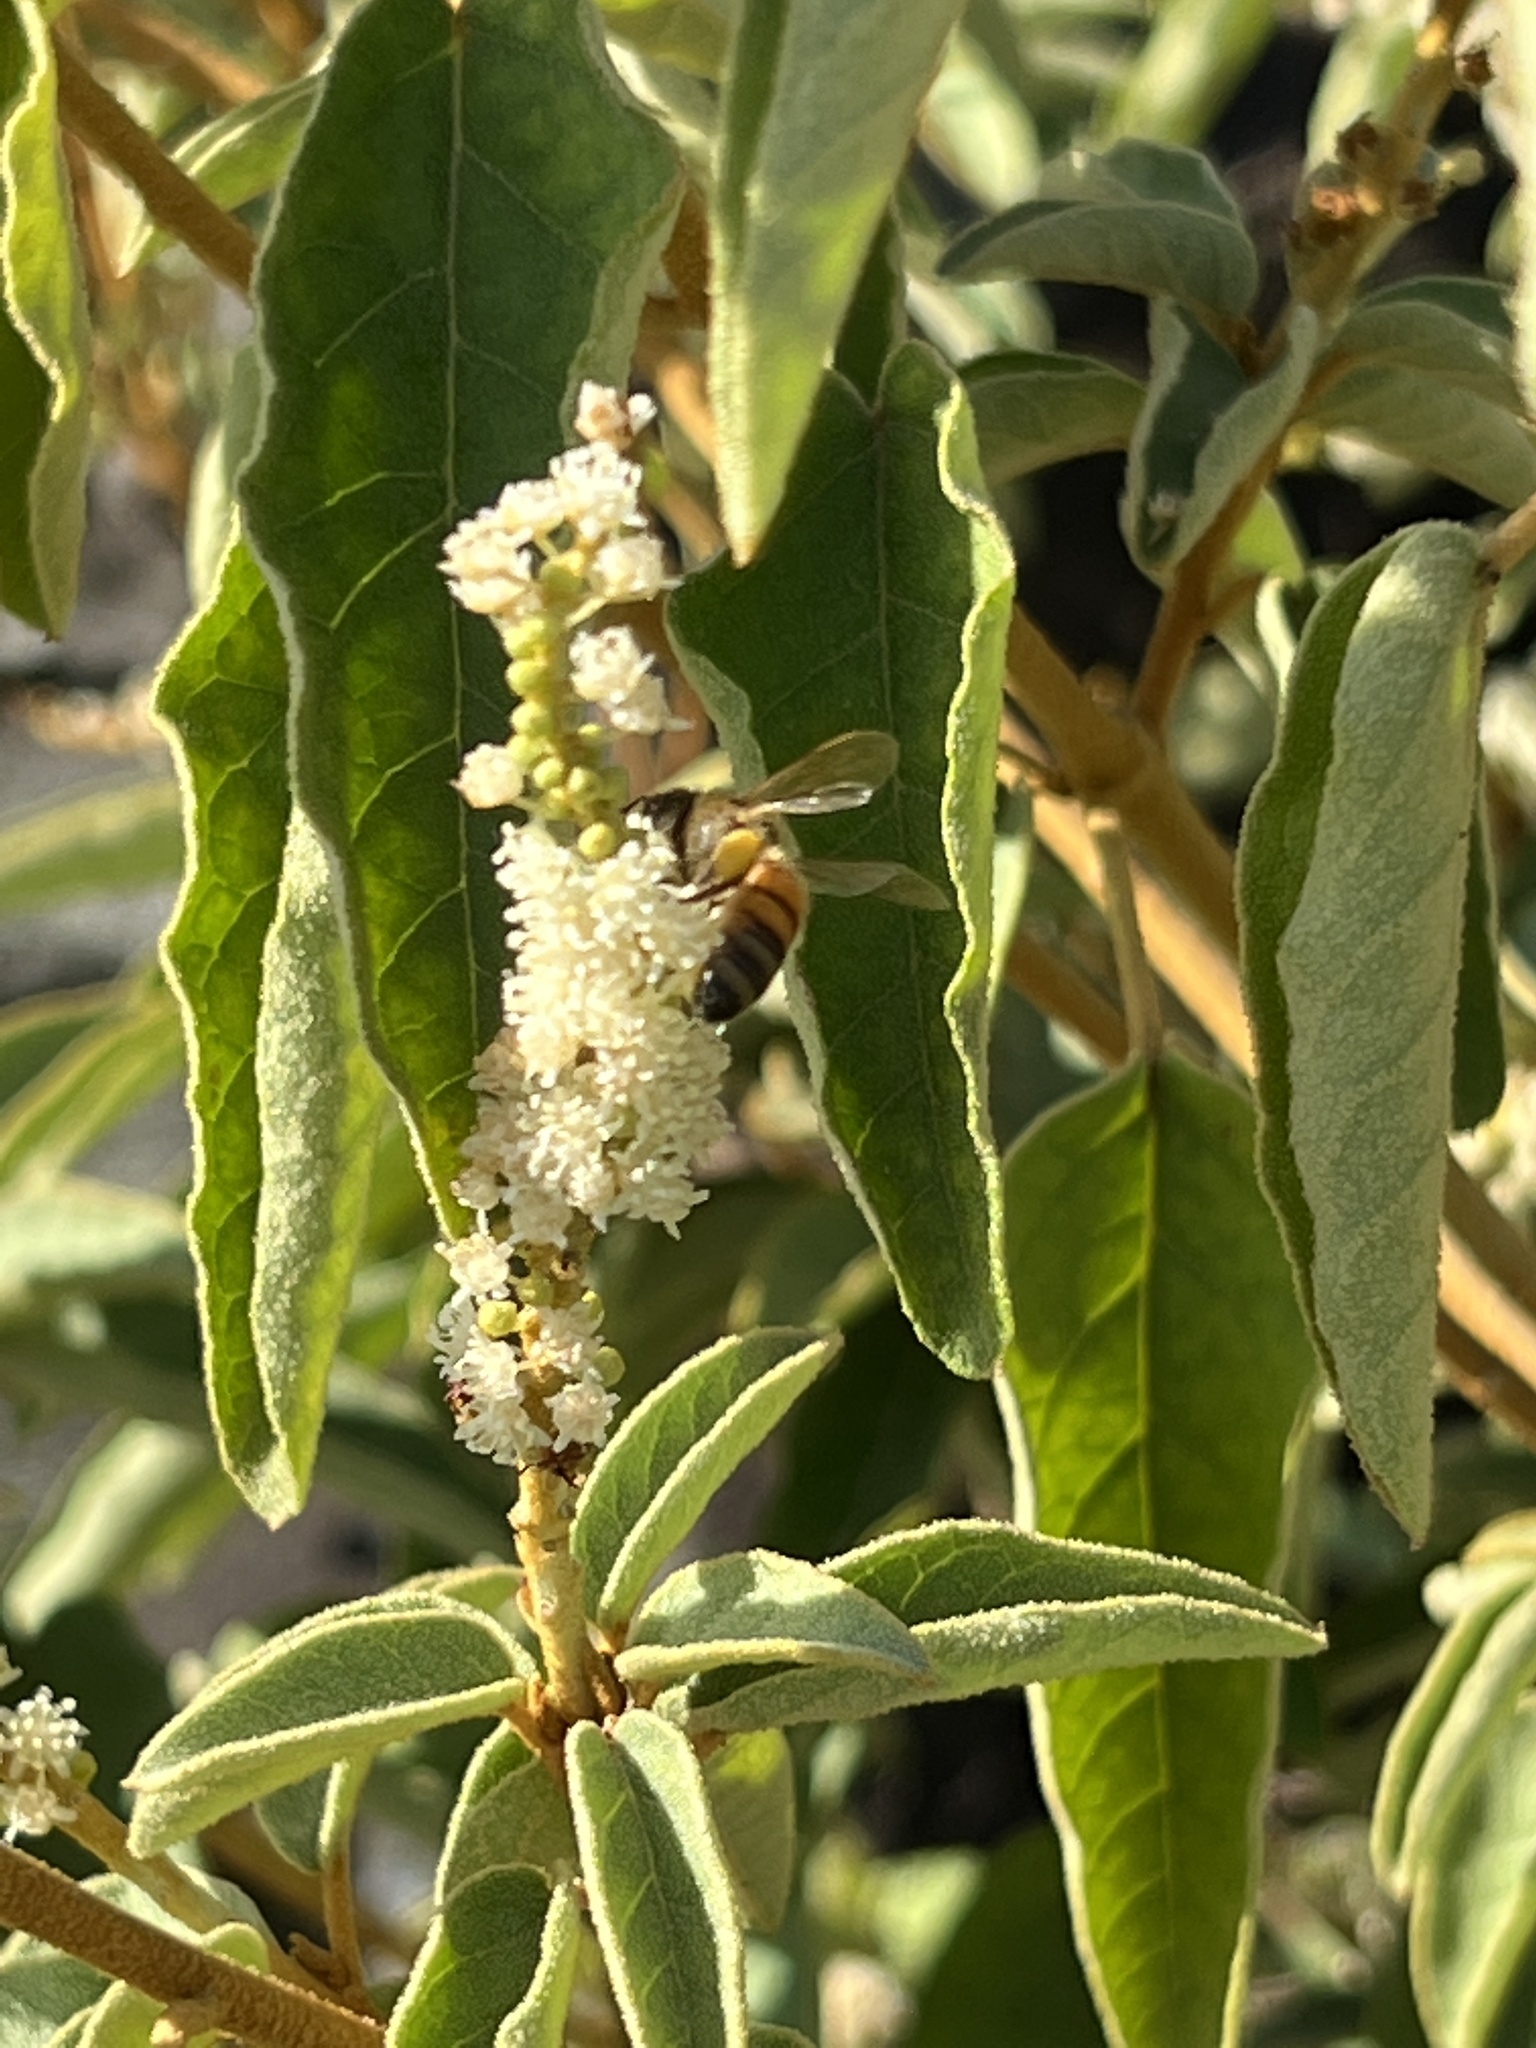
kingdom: Plantae
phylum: Tracheophyta
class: Magnoliopsida
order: Malpighiales
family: Euphorbiaceae
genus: Croton
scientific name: Croton flavens
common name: Yellow balsam
